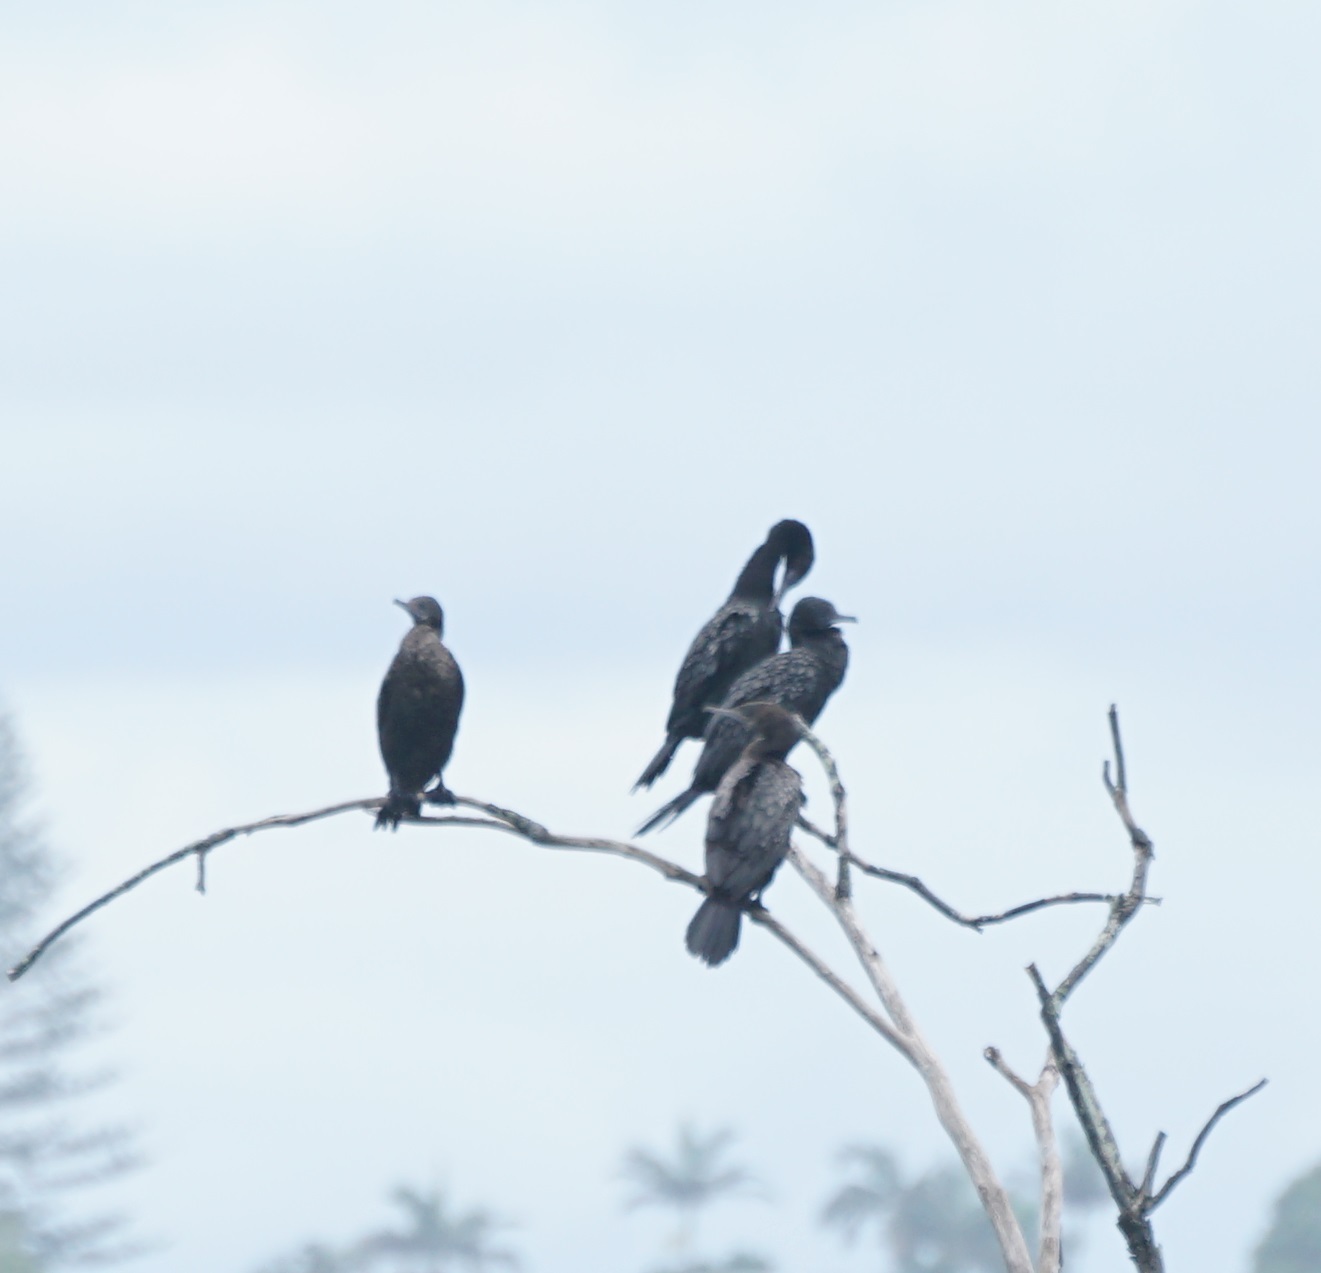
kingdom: Animalia
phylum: Chordata
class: Aves
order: Suliformes
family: Phalacrocoracidae
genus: Phalacrocorax
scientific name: Phalacrocorax sulcirostris
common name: Little black cormorant
